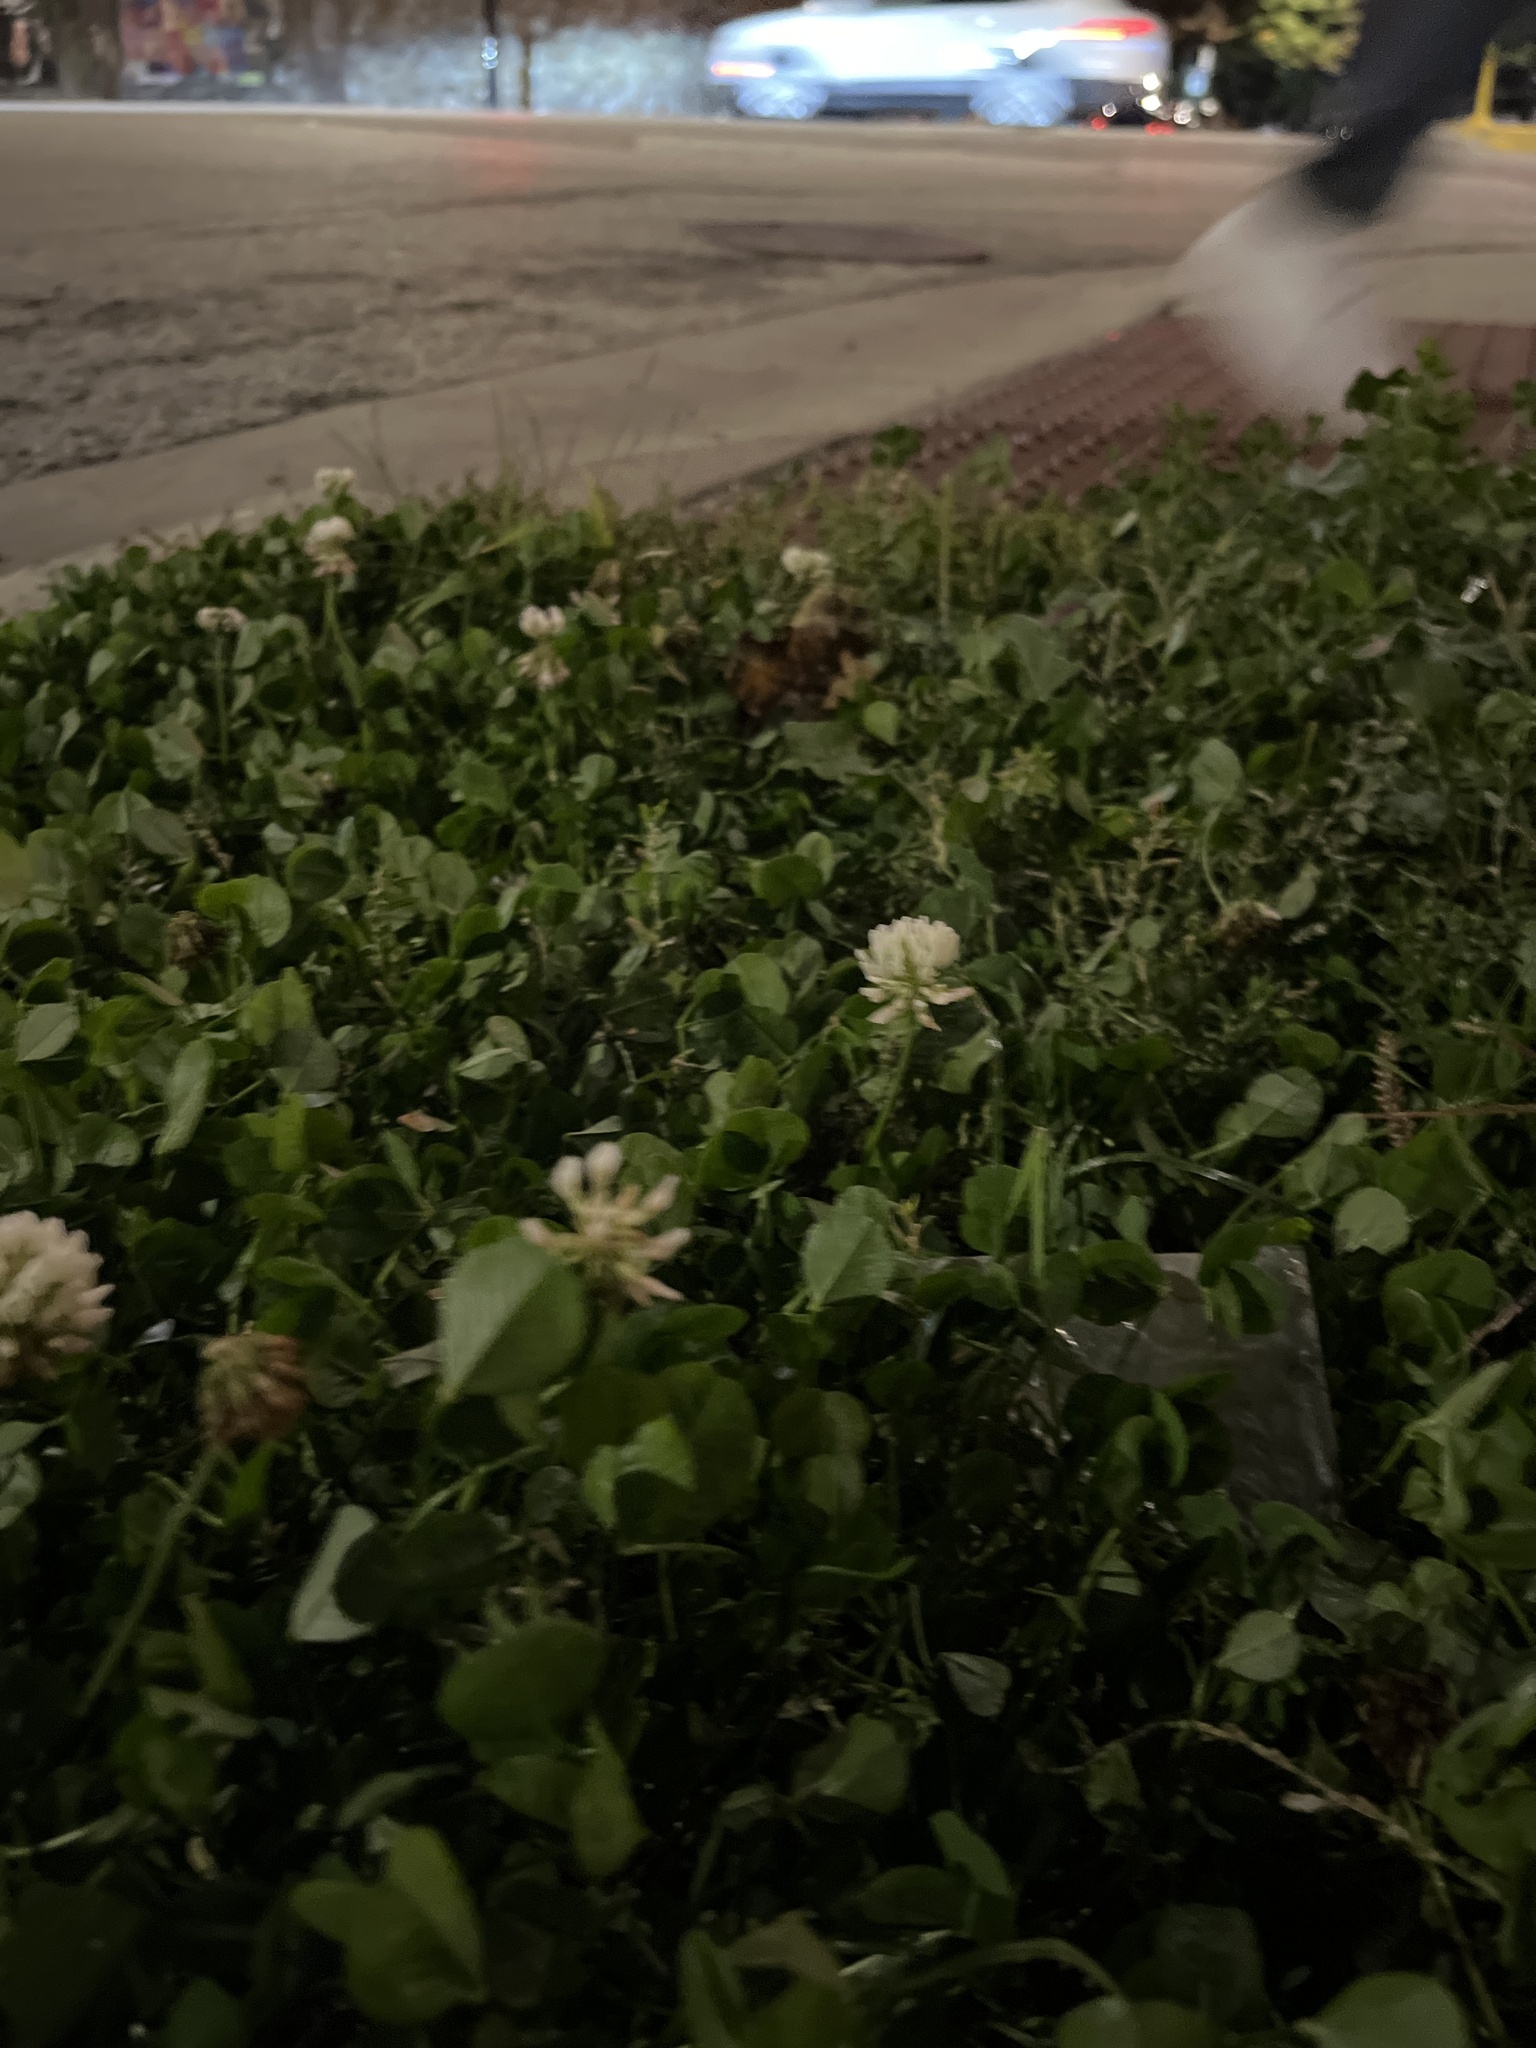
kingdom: Plantae
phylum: Tracheophyta
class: Magnoliopsida
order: Fabales
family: Fabaceae
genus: Trifolium
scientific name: Trifolium repens
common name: White clover
